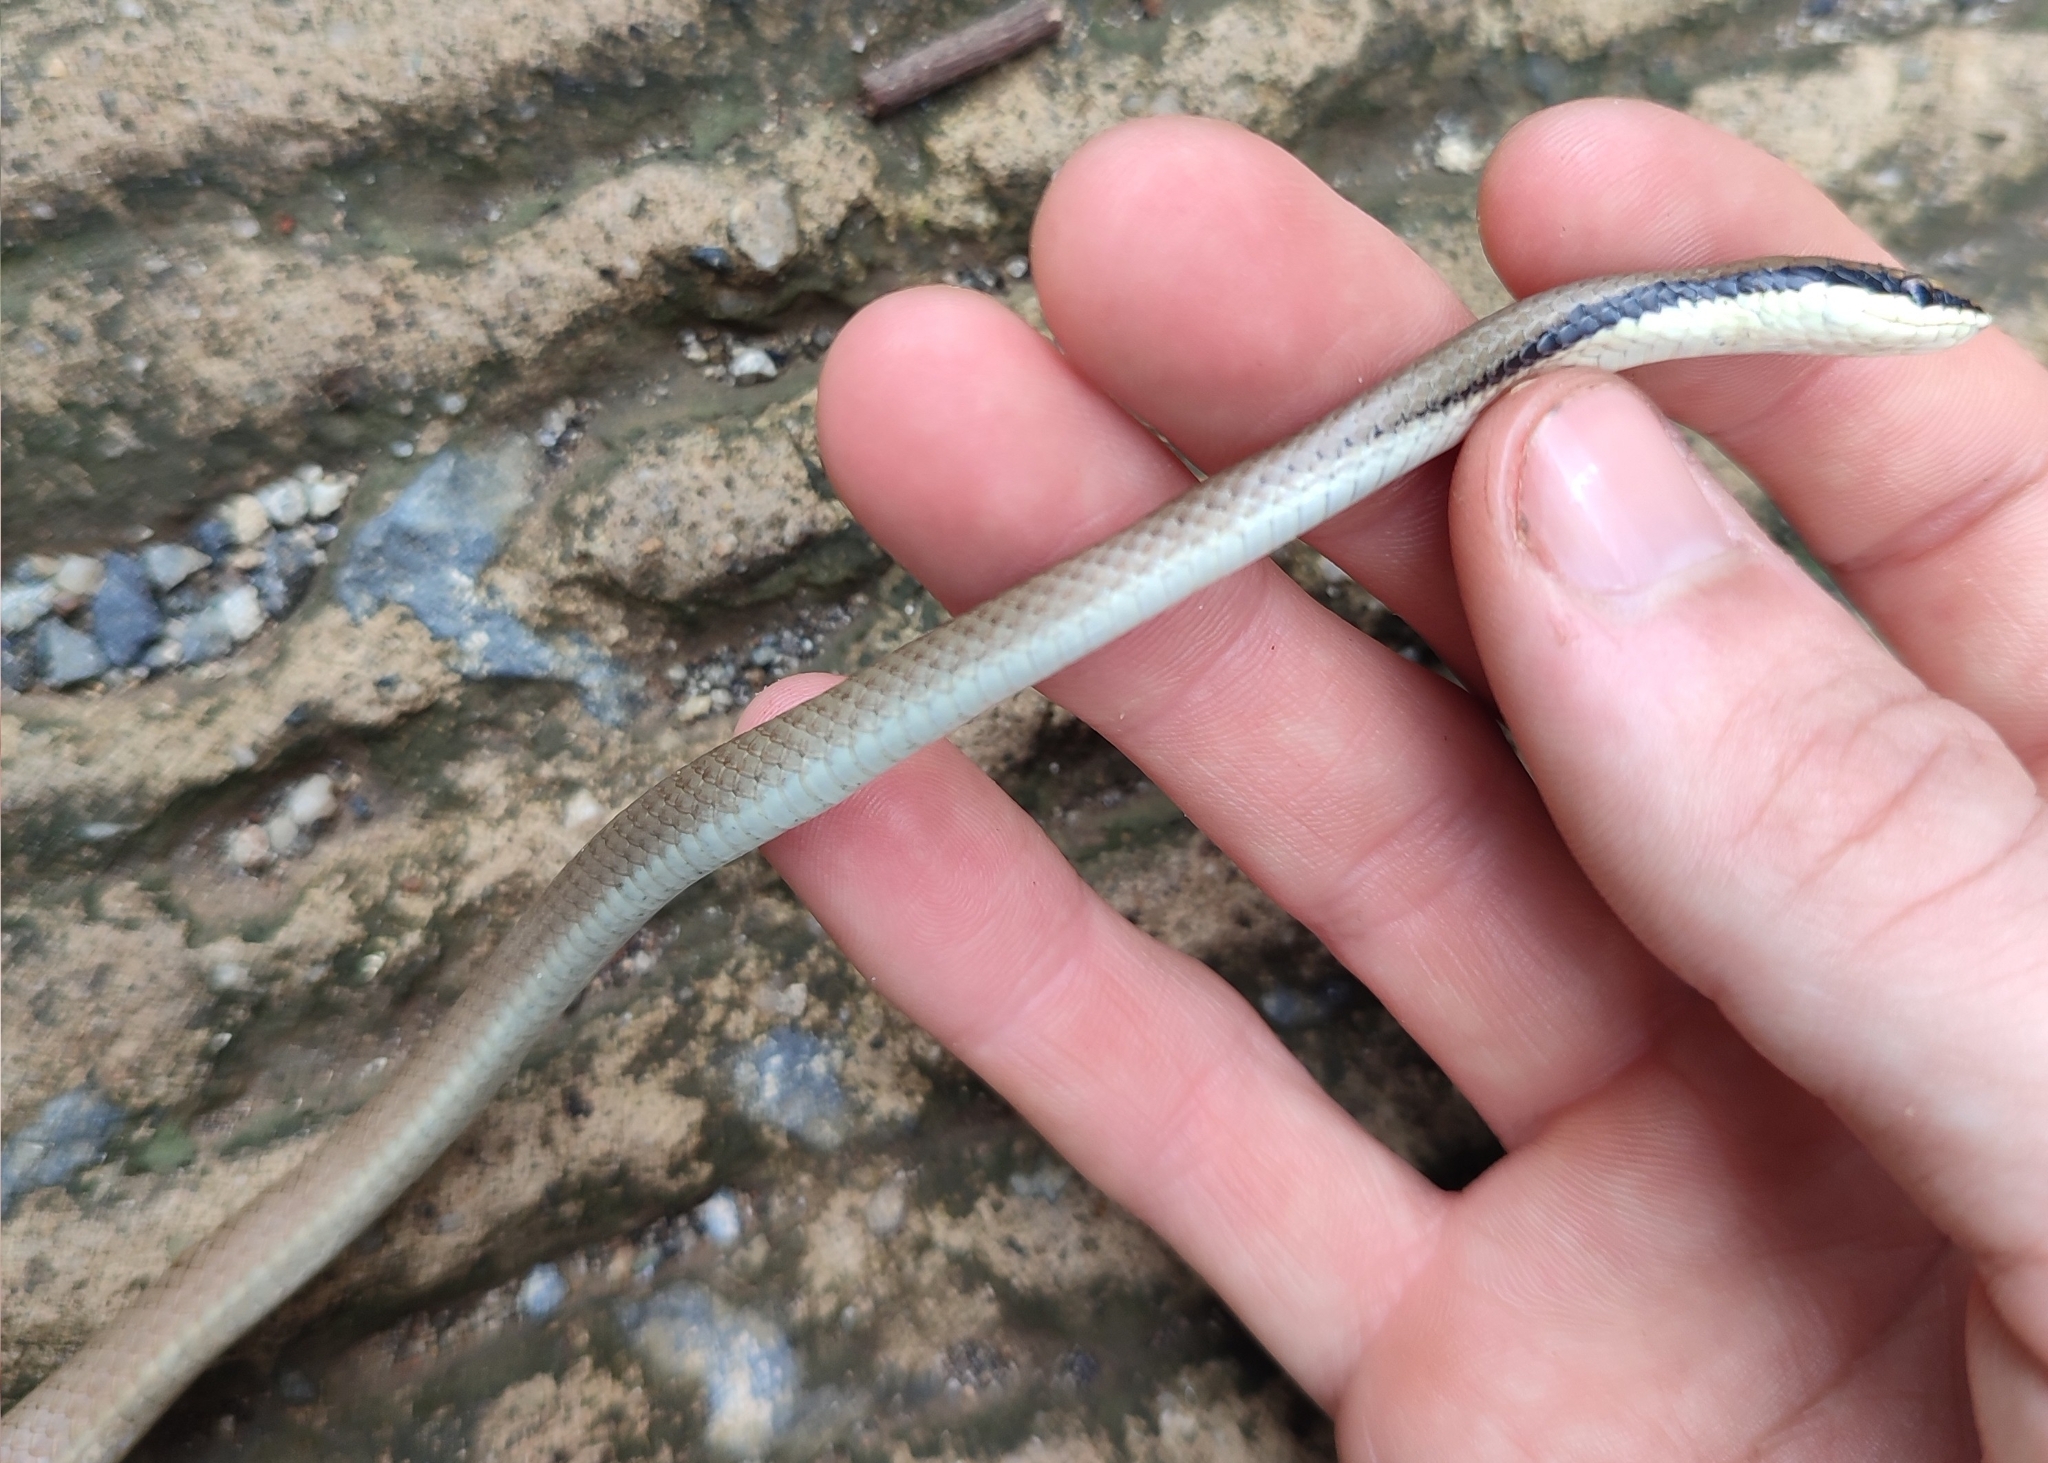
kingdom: Animalia
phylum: Chordata
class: Squamata
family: Colubridae
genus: Liopeltis
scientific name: Liopeltis tricolor
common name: Malayan ringneck
